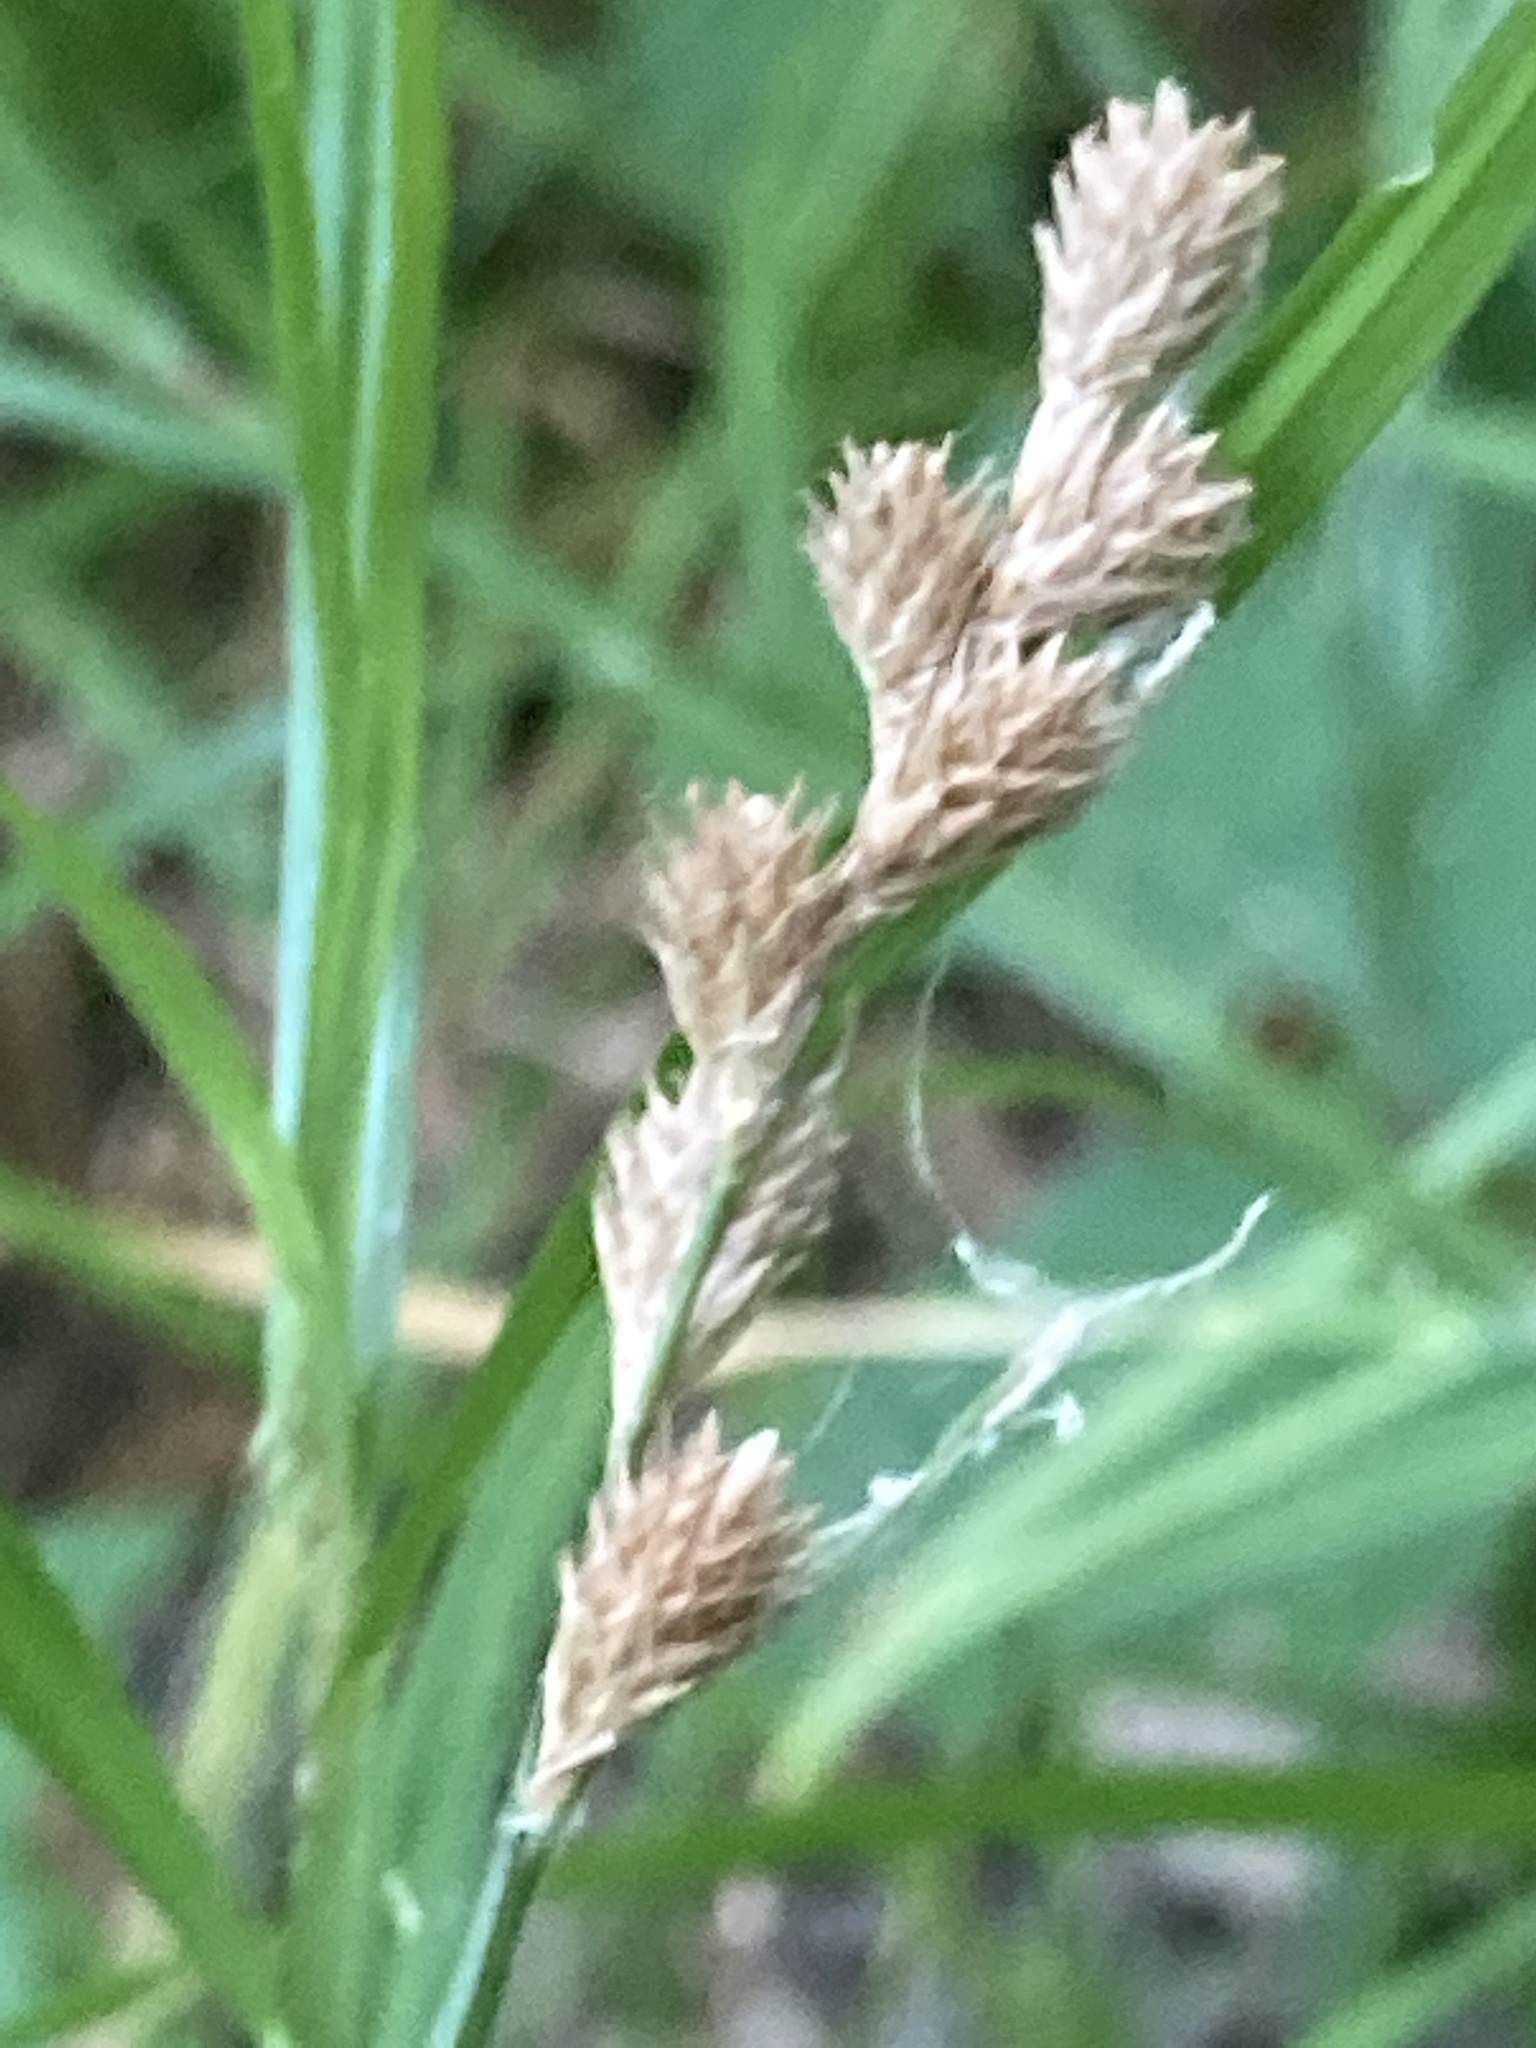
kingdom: Plantae
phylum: Tracheophyta
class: Liliopsida
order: Poales
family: Cyperaceae
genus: Carex
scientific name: Carex tribuloides
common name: Blunt broom sedge
